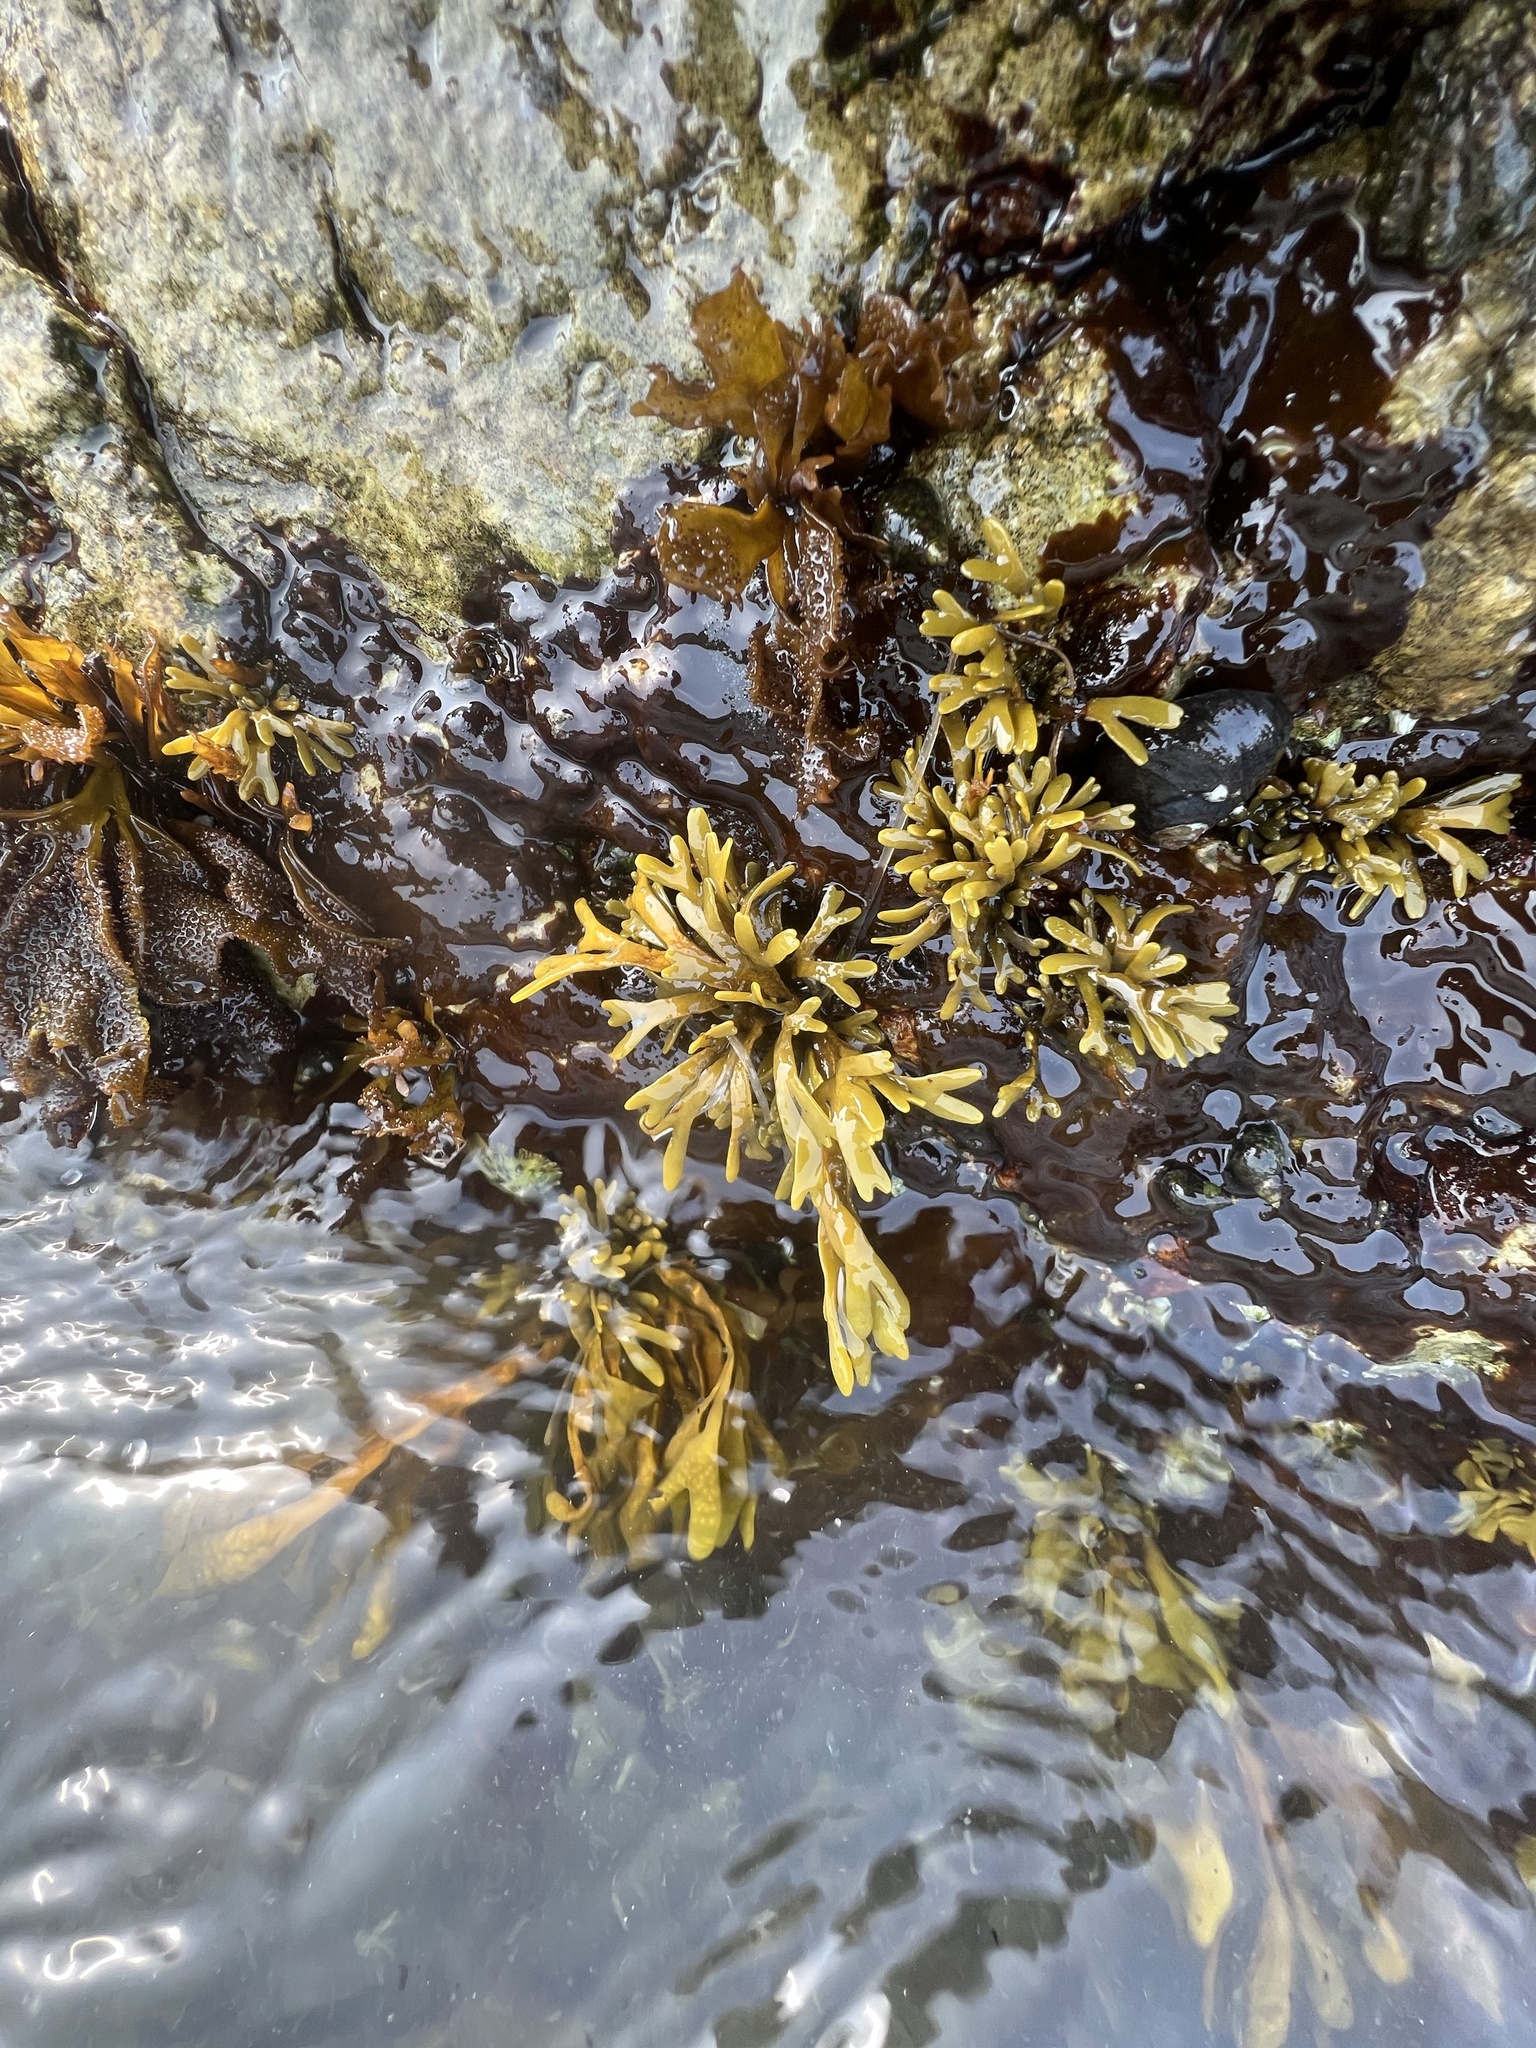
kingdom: Chromista
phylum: Ochrophyta
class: Phaeophyceae
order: Fucales
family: Fucaceae
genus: Pelvetiopsis
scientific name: Pelvetiopsis limitata
